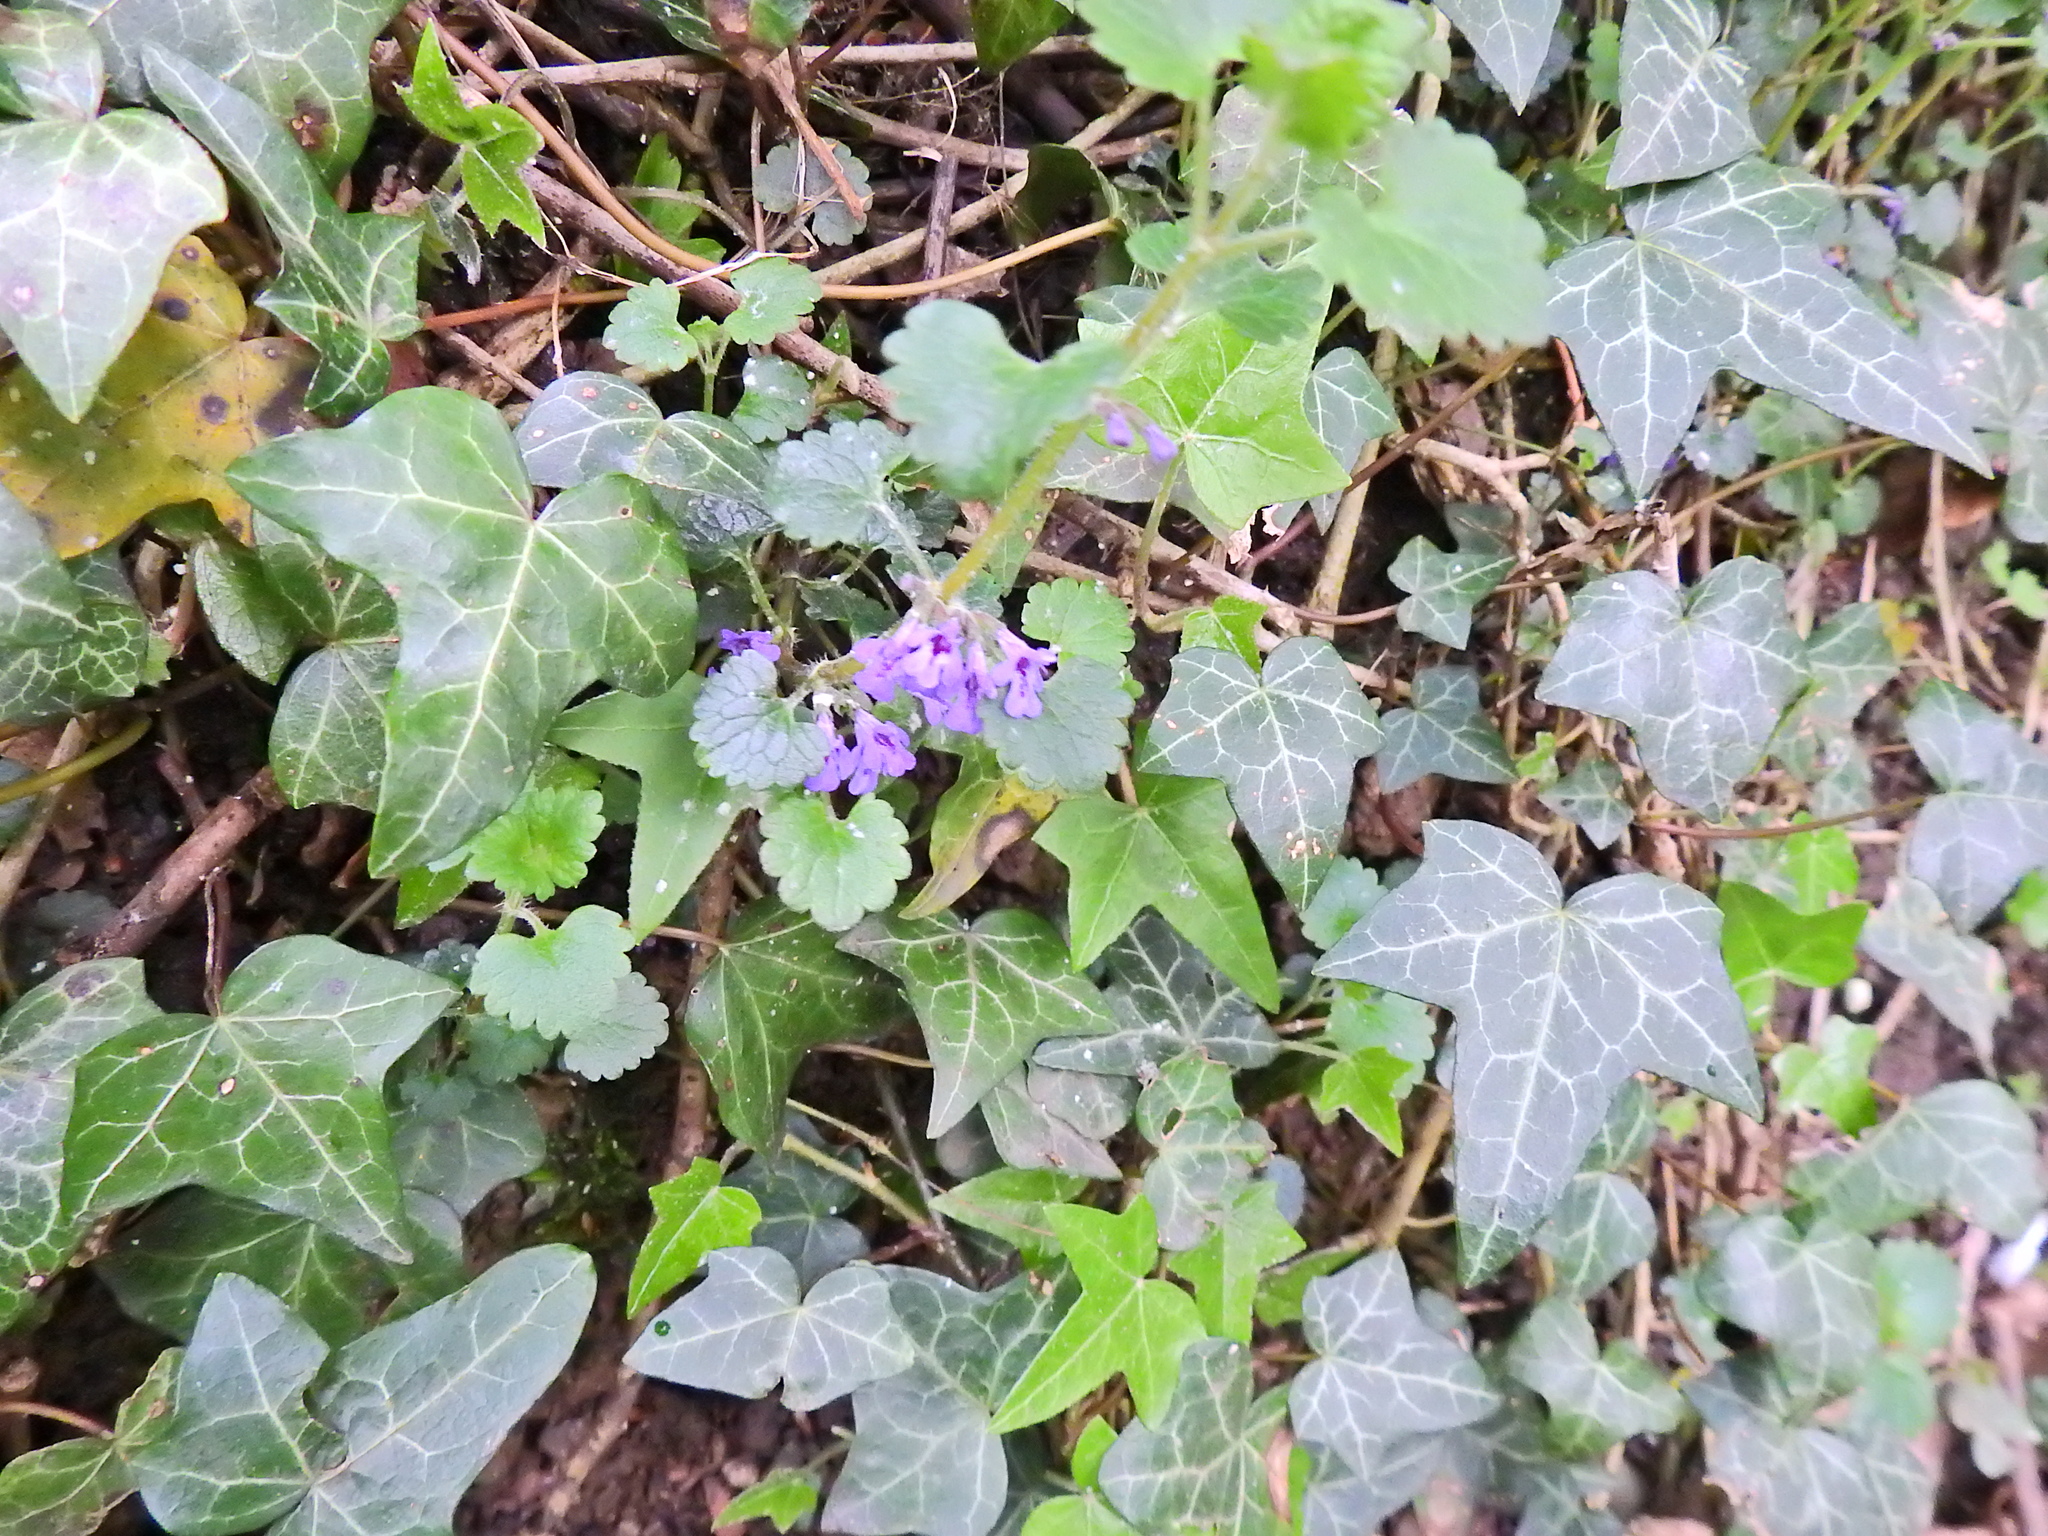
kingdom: Plantae
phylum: Tracheophyta
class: Magnoliopsida
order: Lamiales
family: Lamiaceae
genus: Glechoma
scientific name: Glechoma hederacea
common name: Ground ivy
